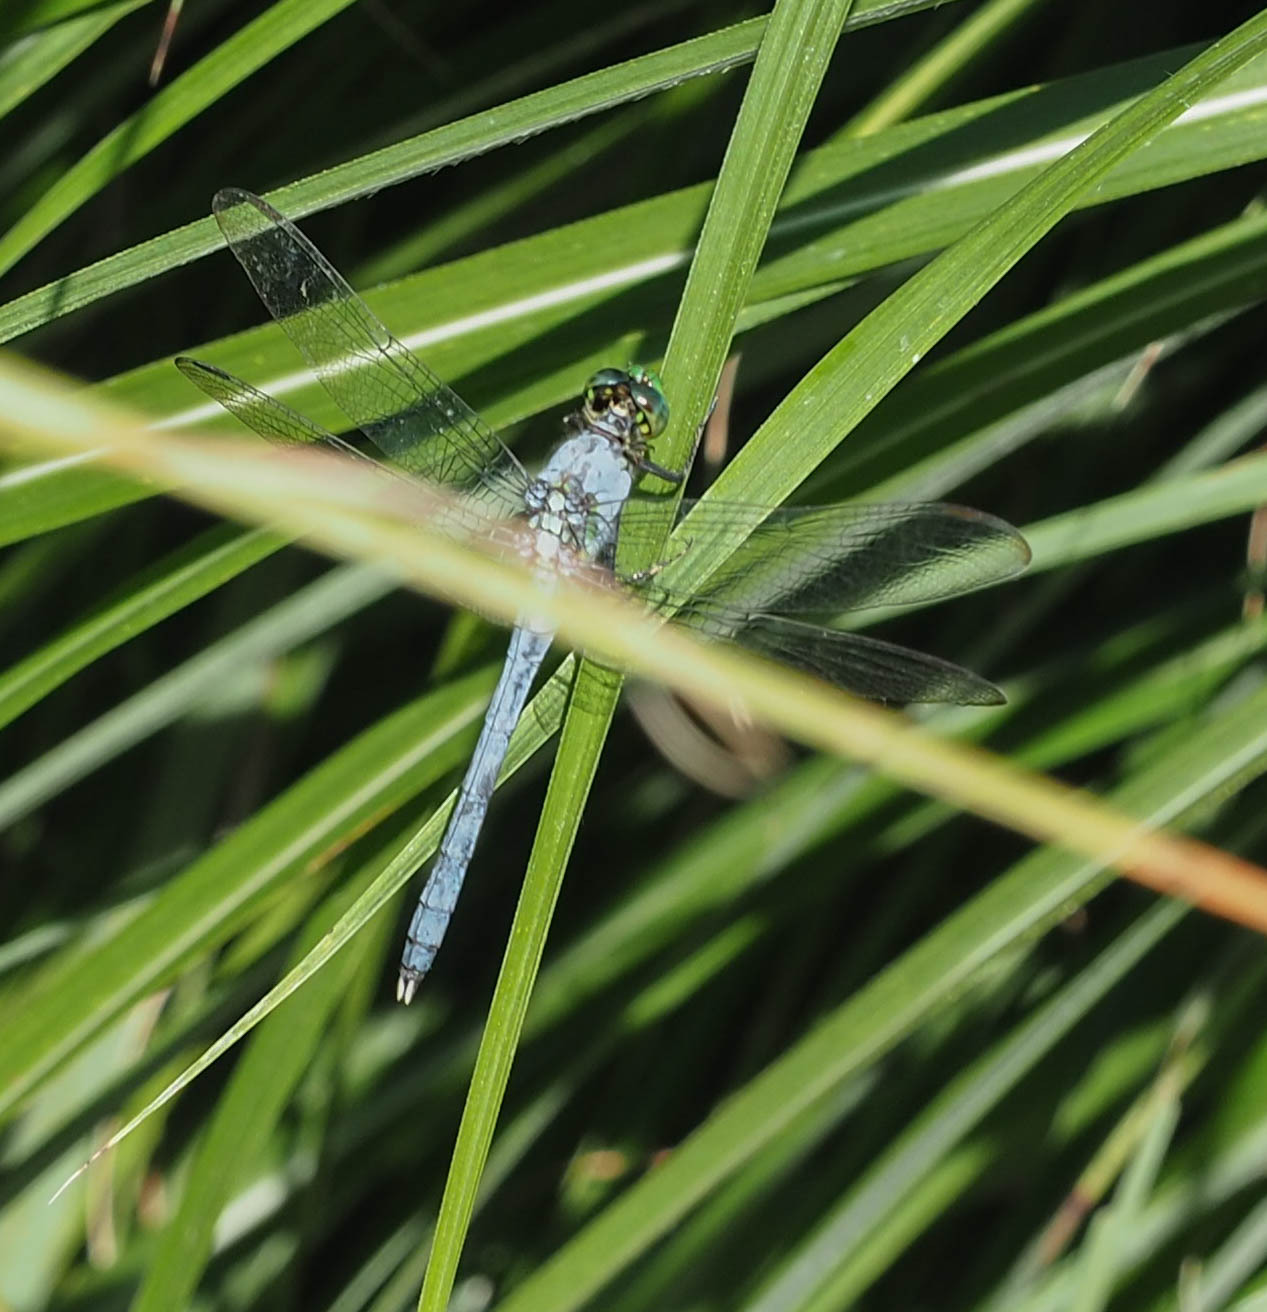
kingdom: Animalia
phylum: Arthropoda
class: Insecta
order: Odonata
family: Libellulidae
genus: Erythemis
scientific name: Erythemis simplicicollis
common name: Eastern pondhawk
